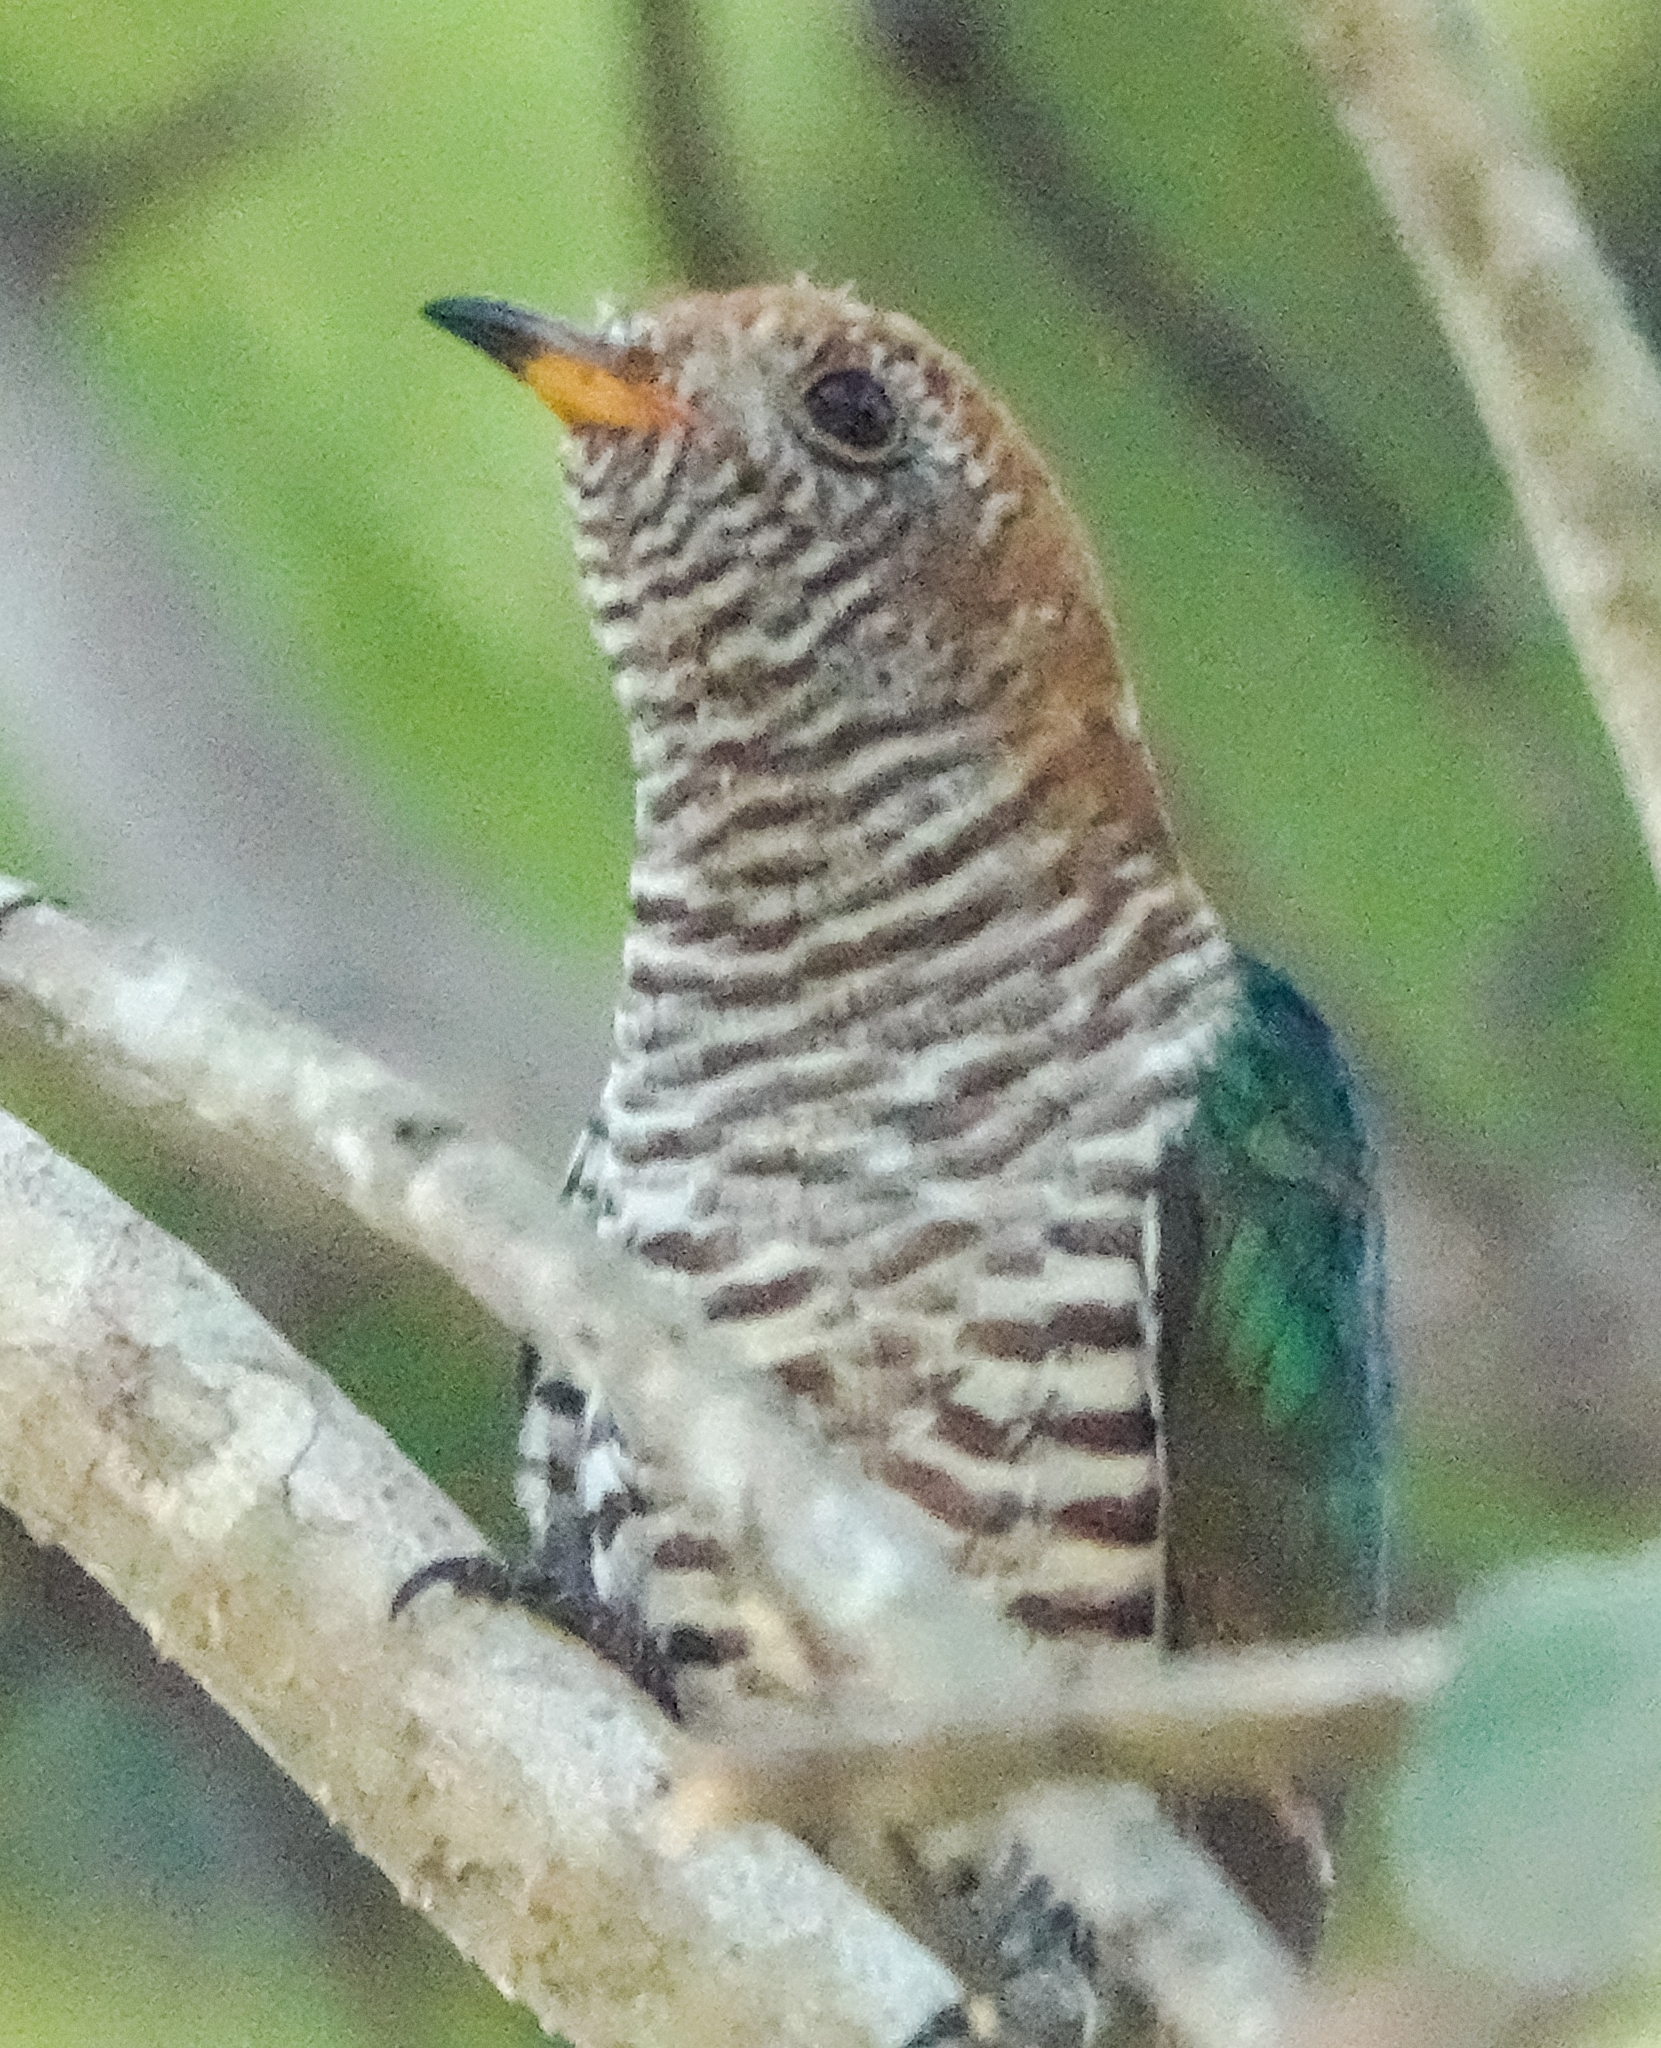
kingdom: Animalia
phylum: Chordata
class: Aves
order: Cuculiformes
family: Cuculidae
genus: Chrysococcyx
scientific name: Chrysococcyx maculatus
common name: Asian emerald cuckoo
